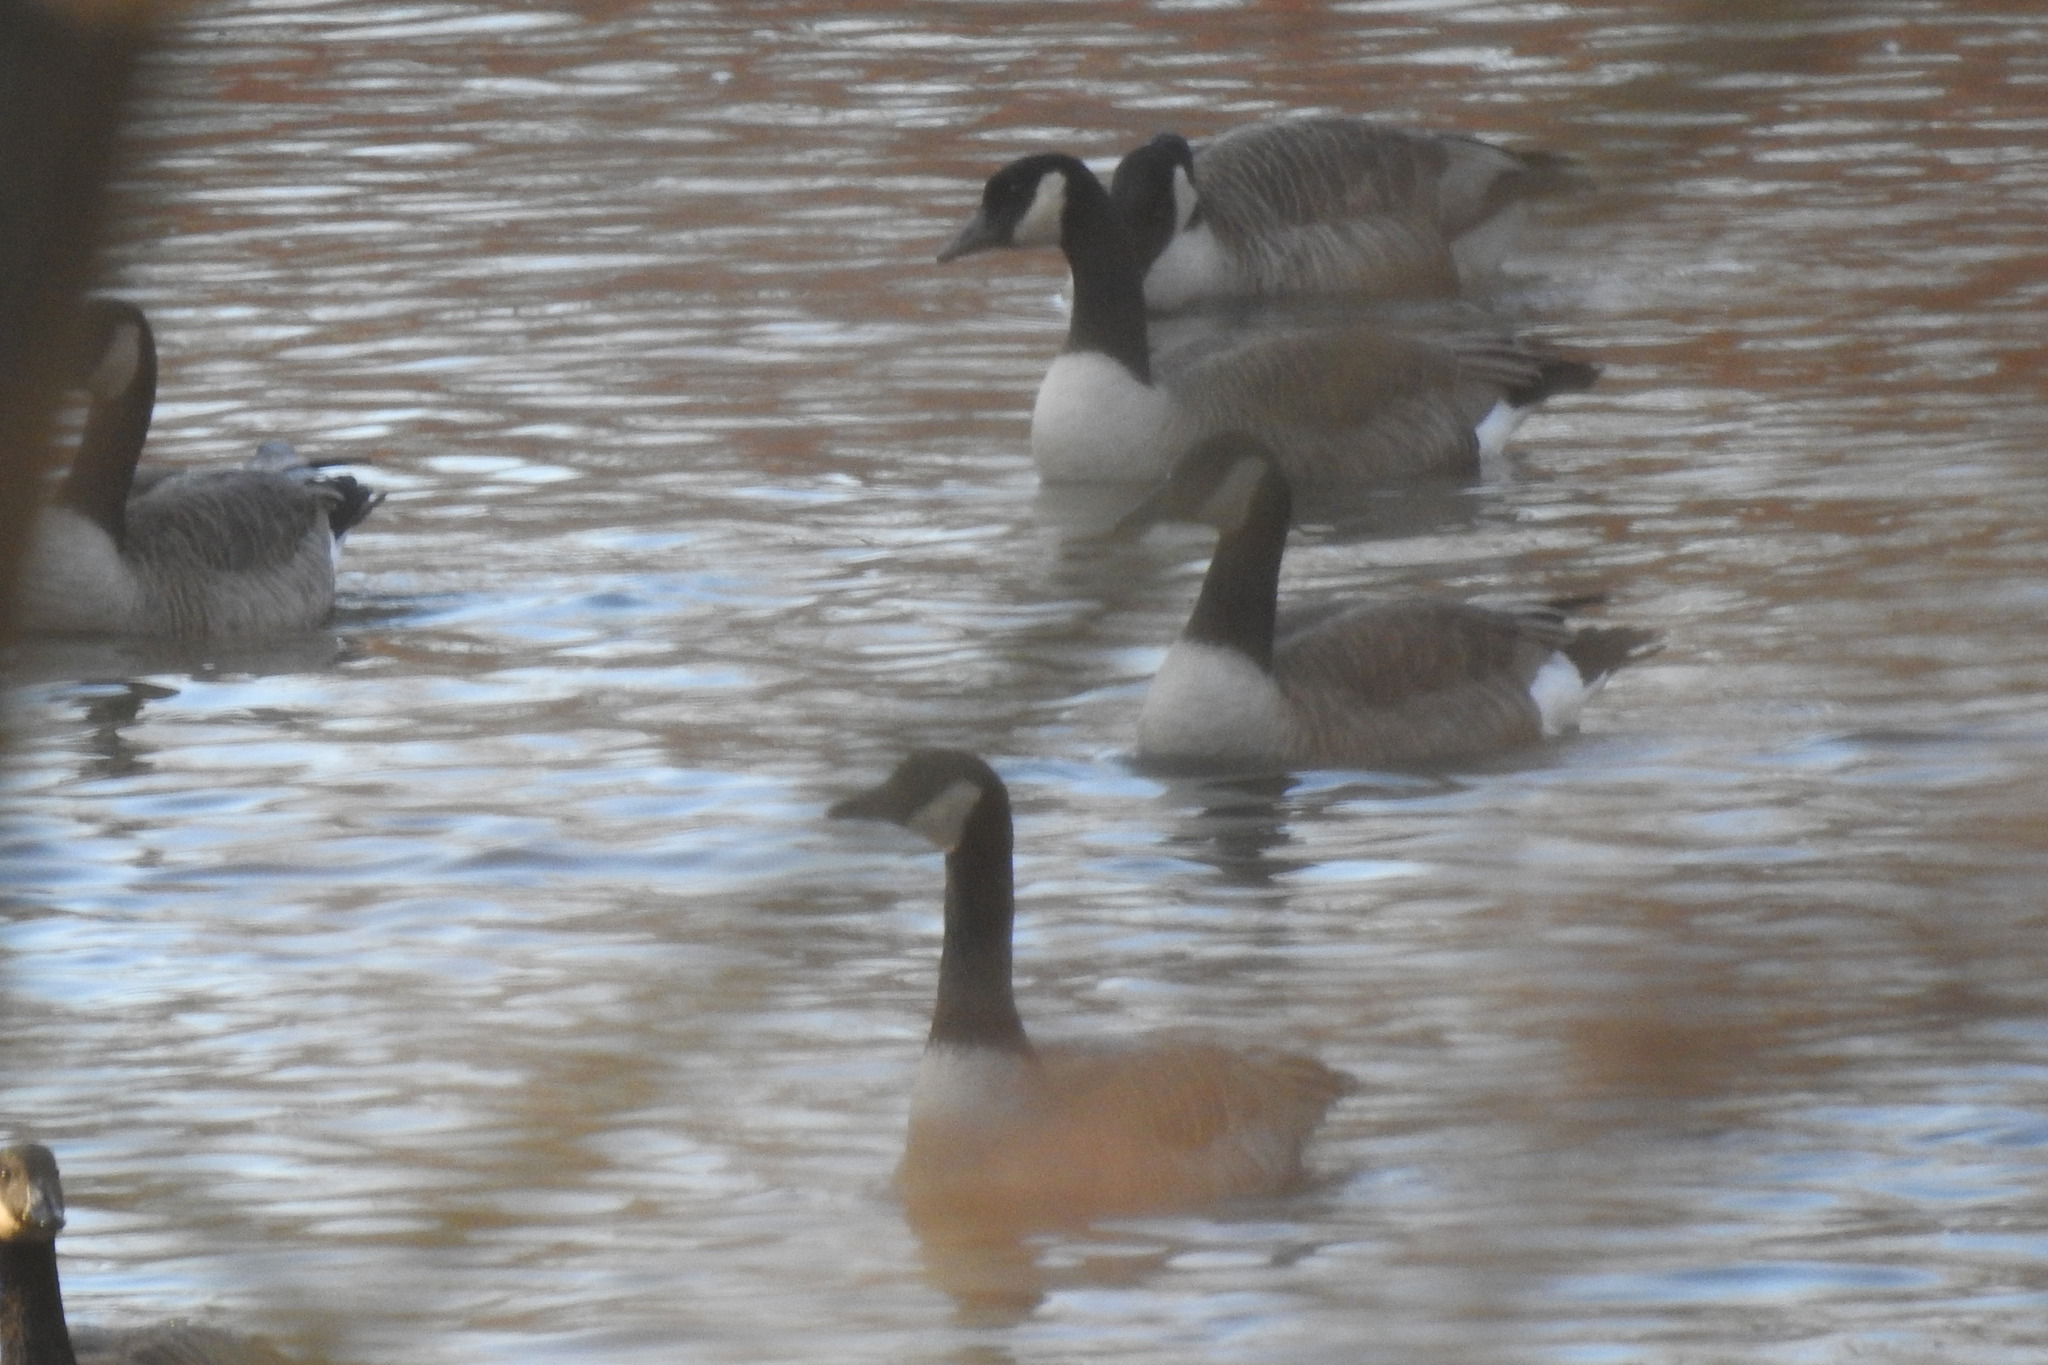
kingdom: Animalia
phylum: Chordata
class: Aves
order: Anseriformes
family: Anatidae
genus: Branta
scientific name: Branta canadensis
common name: Canada goose
